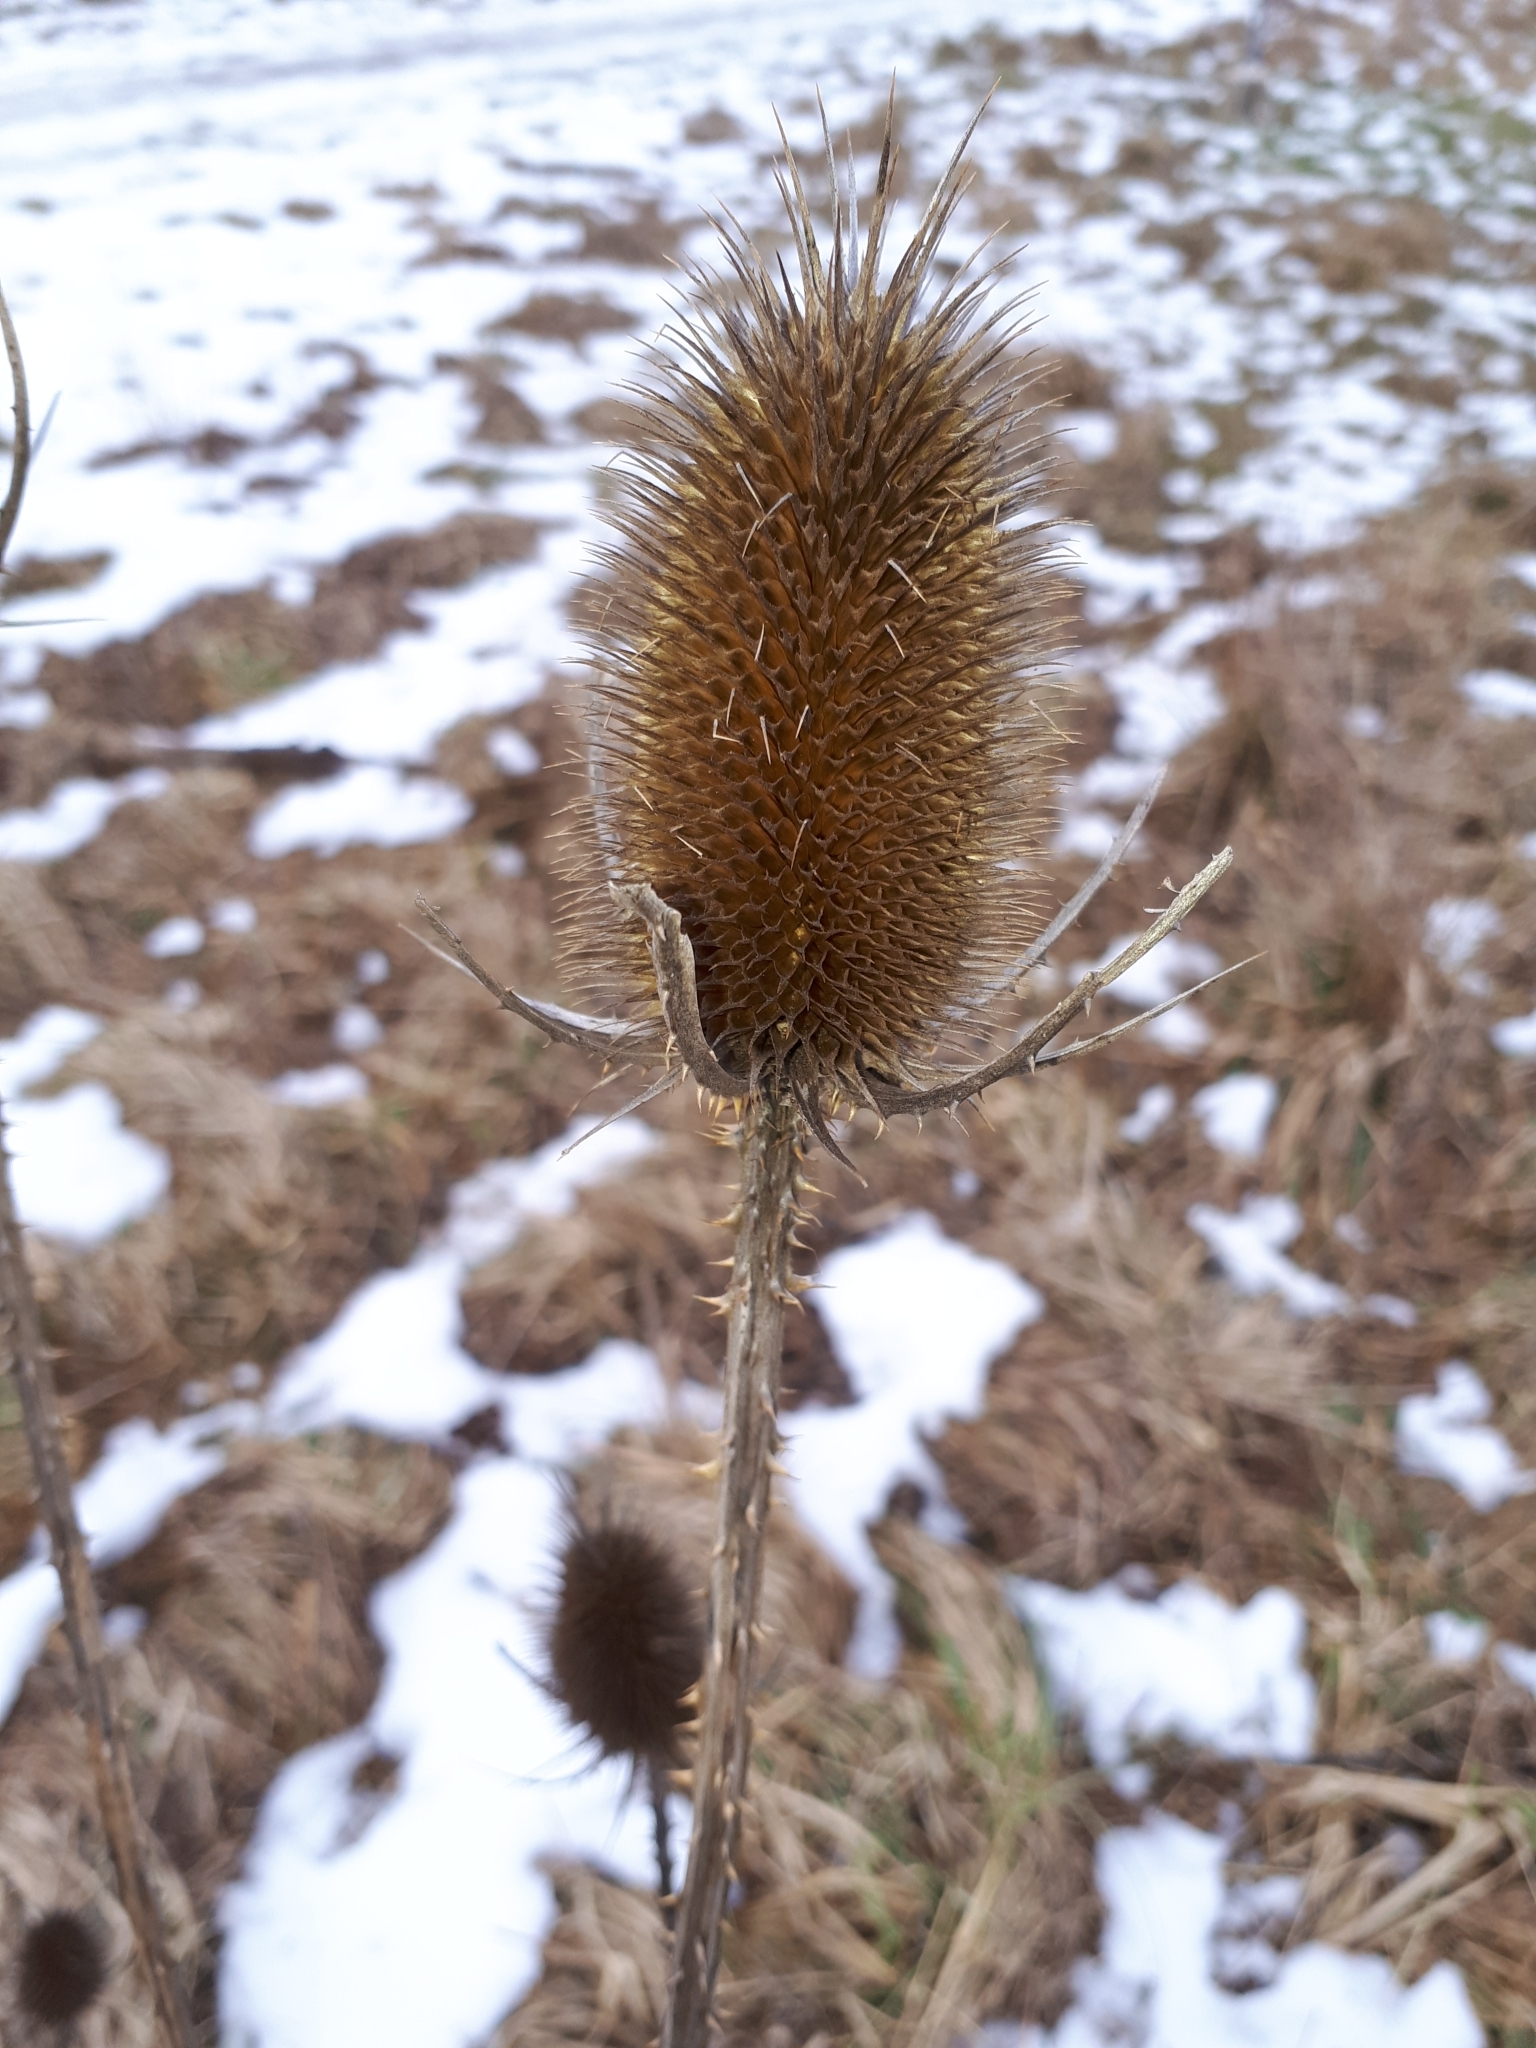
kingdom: Plantae
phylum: Tracheophyta
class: Magnoliopsida
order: Dipsacales
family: Caprifoliaceae
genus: Dipsacus
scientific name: Dipsacus fullonum
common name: Teasel
